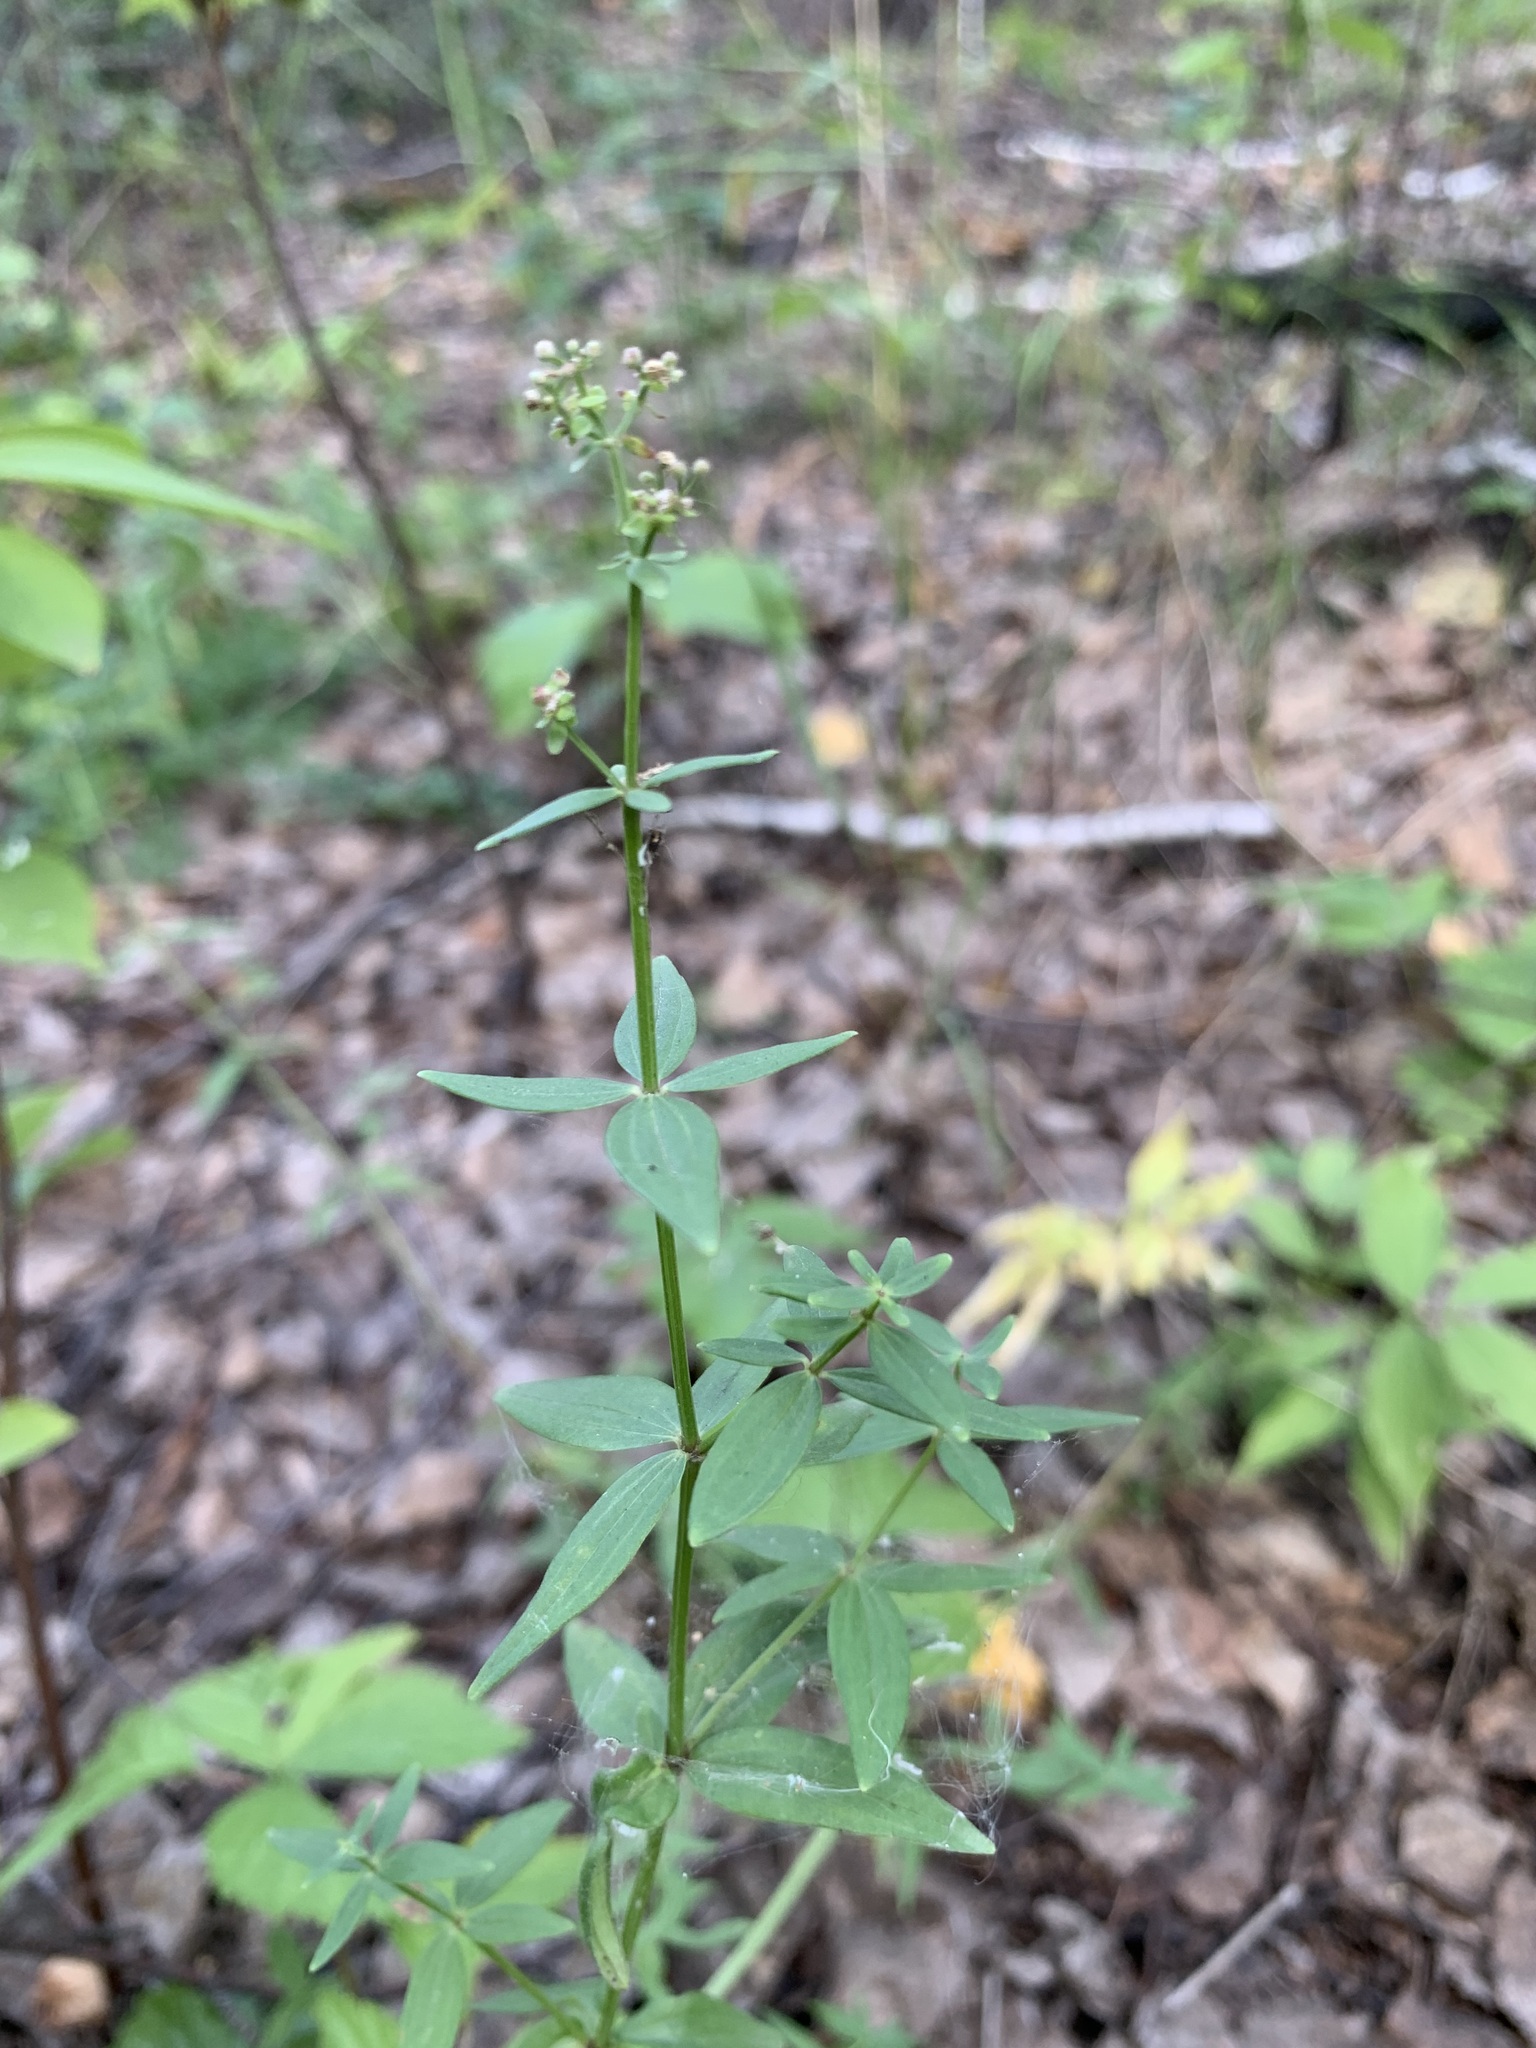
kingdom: Plantae
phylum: Tracheophyta
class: Magnoliopsida
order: Gentianales
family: Rubiaceae
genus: Galium
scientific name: Galium boreale
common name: Northern bedstraw
